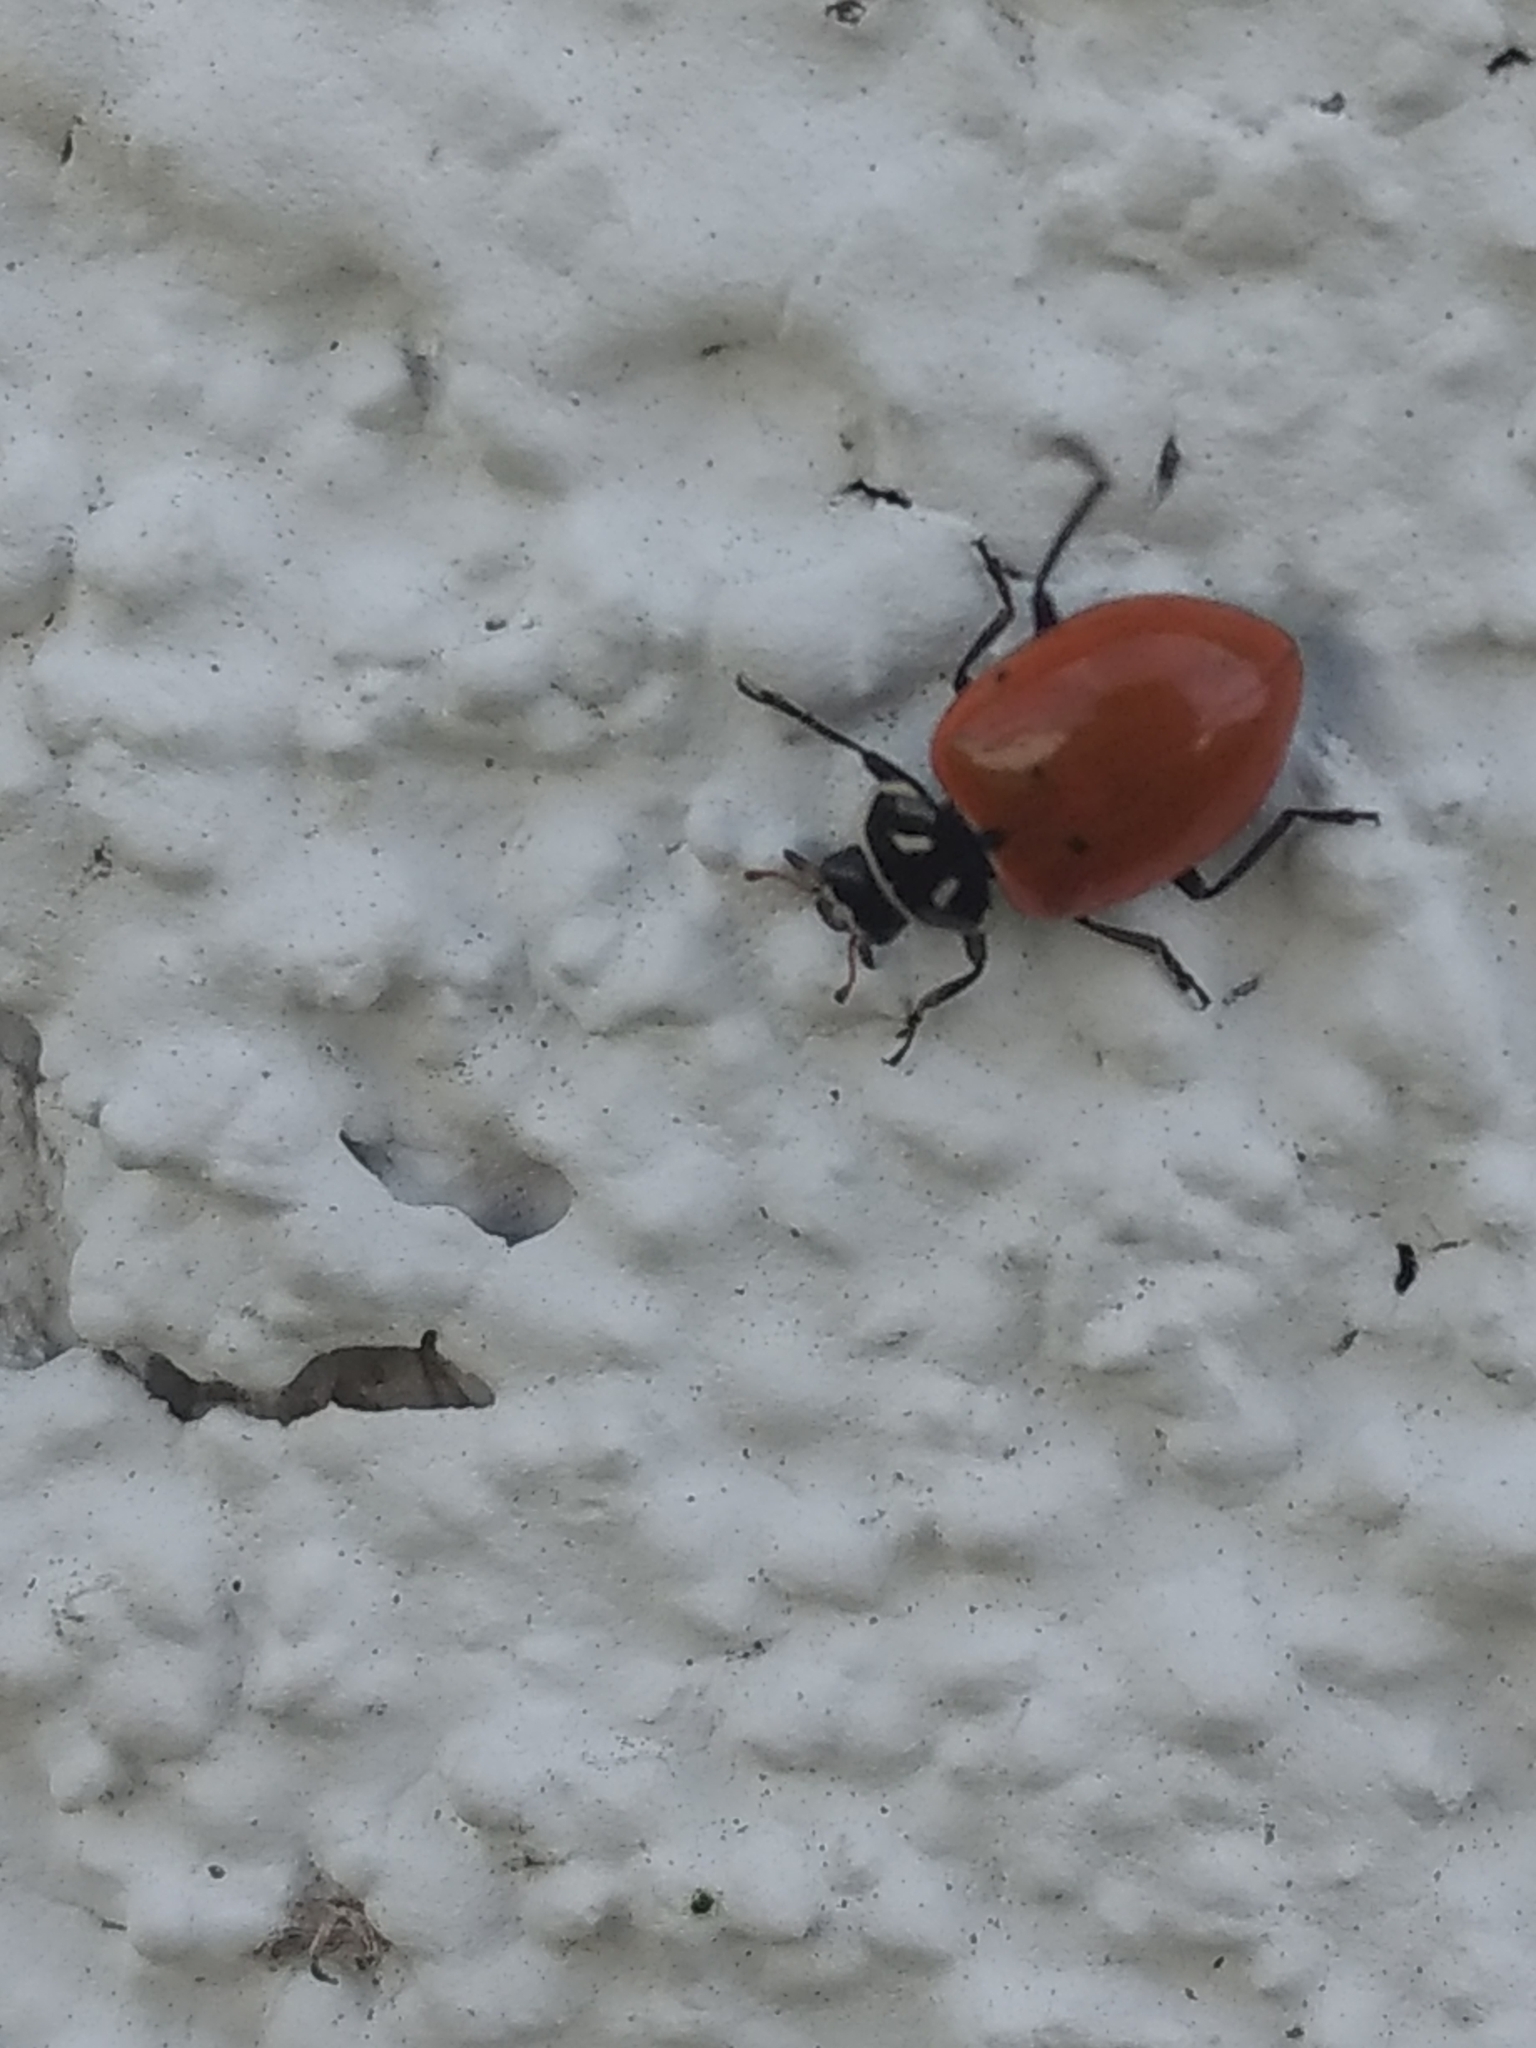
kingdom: Animalia
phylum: Arthropoda
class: Insecta
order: Coleoptera
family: Coccinellidae
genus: Hippodamia
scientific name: Hippodamia convergens
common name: Convergent lady beetle
